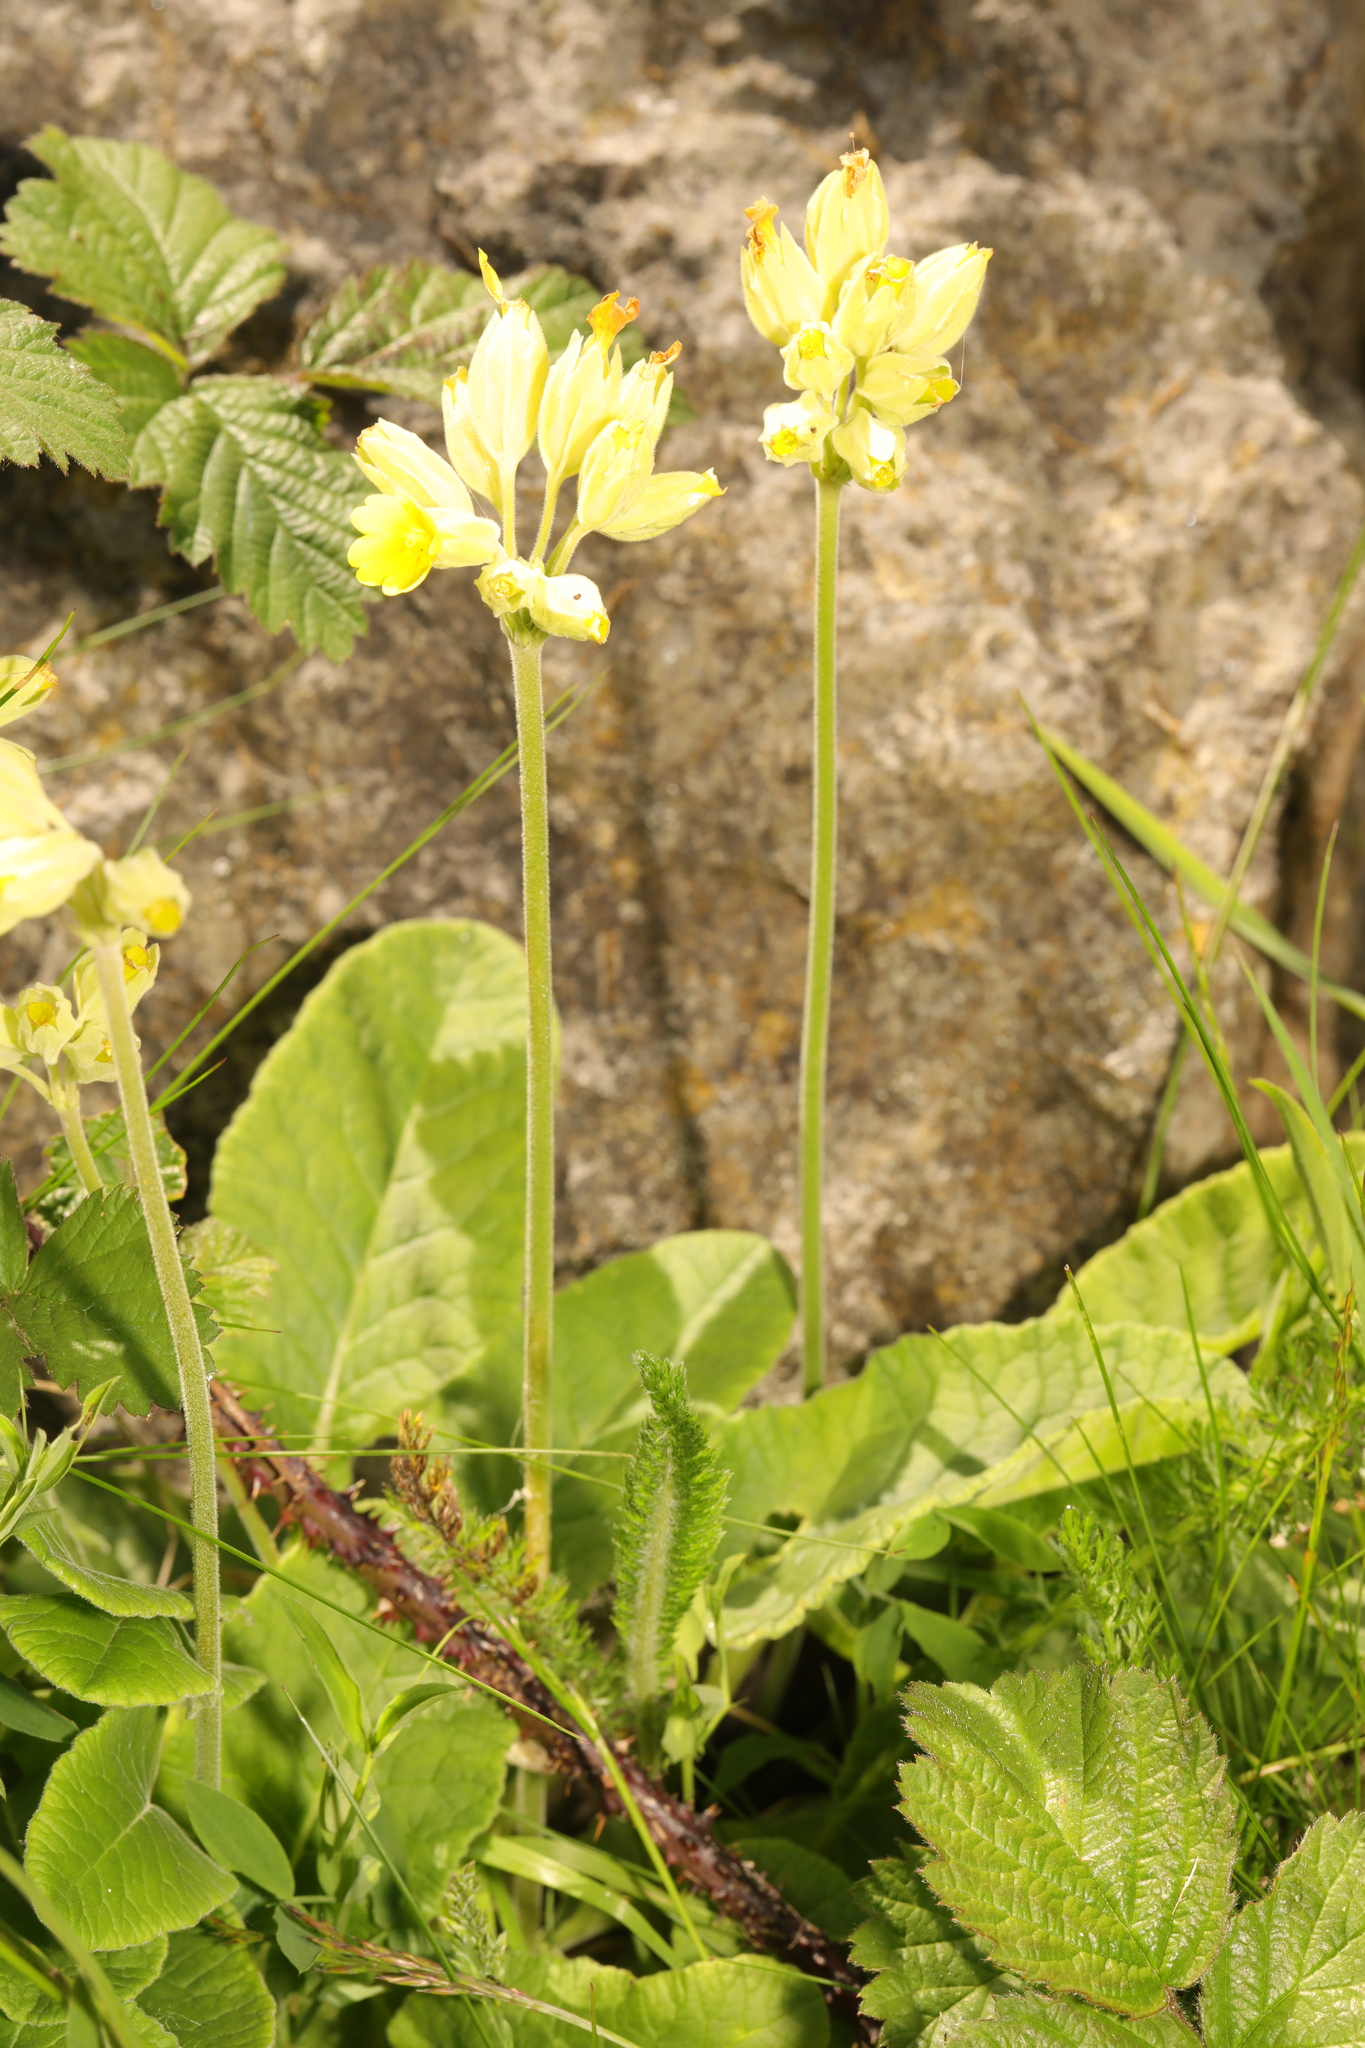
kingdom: Plantae
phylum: Tracheophyta
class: Magnoliopsida
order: Ericales
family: Primulaceae
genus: Primula
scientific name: Primula veris
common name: Cowslip
